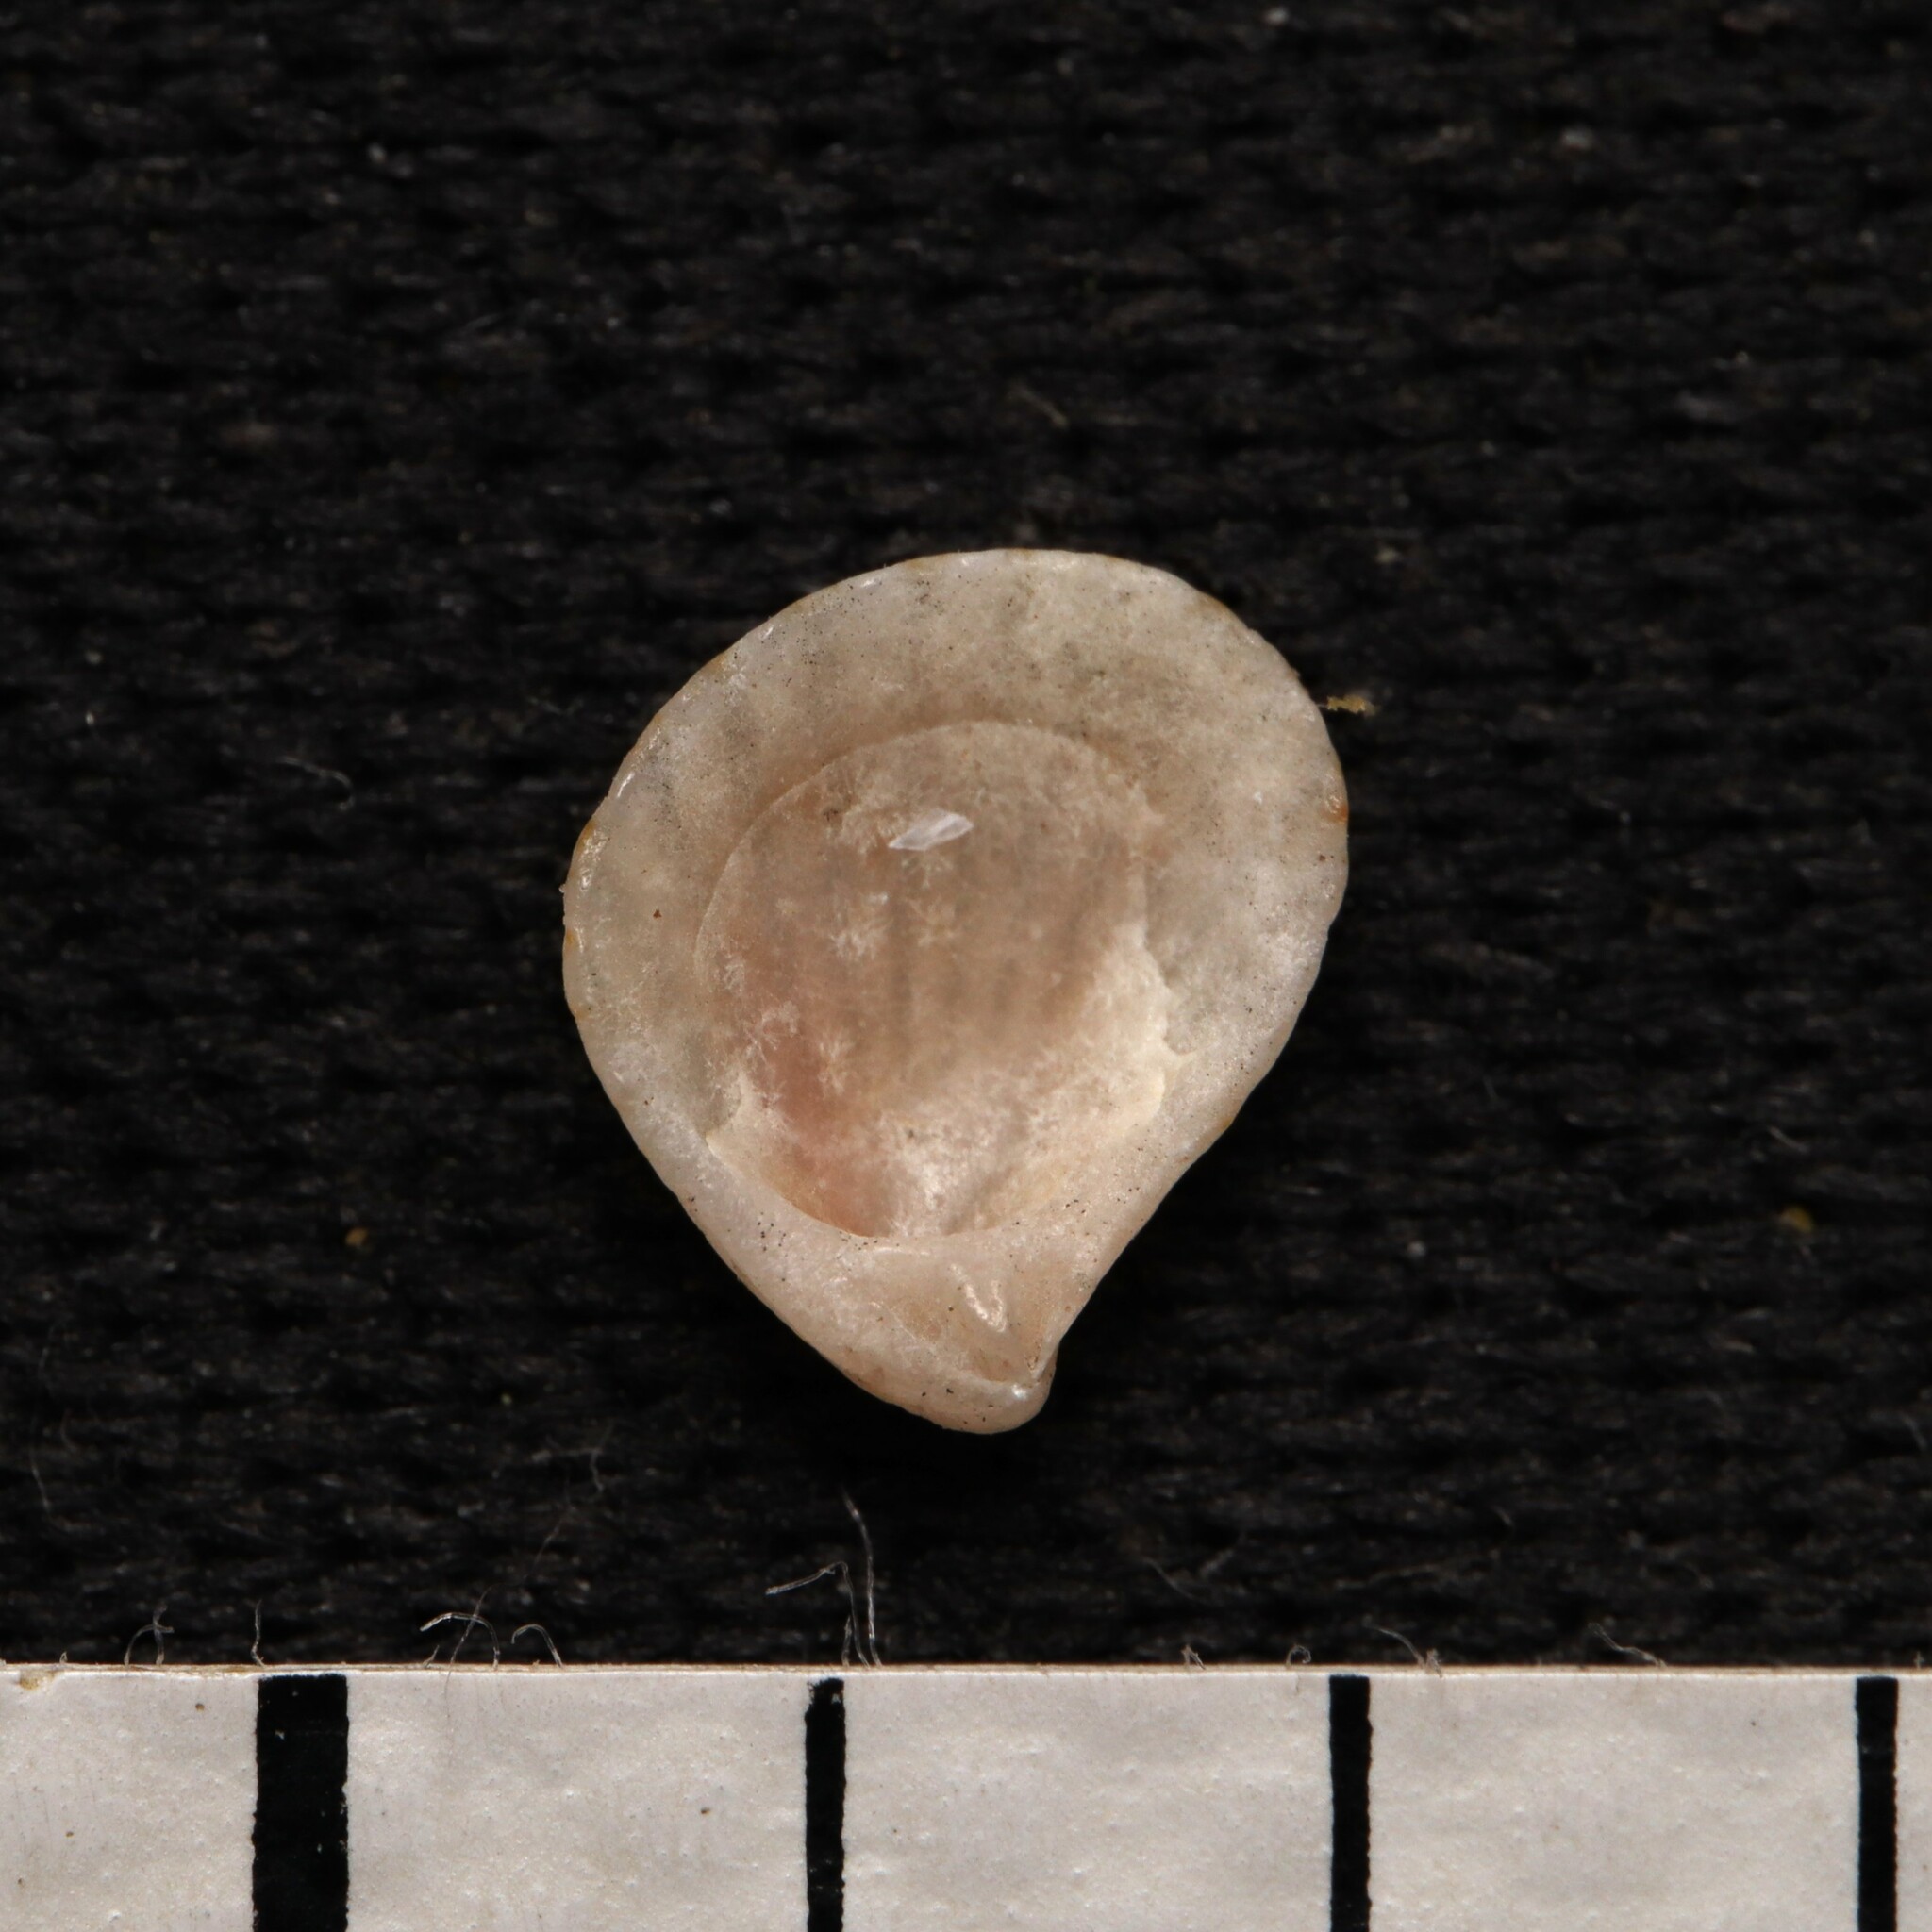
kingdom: Animalia
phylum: Mollusca
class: Bivalvia
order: Carditida
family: Carditidae
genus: Pteromeris
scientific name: Pteromeris perplana
